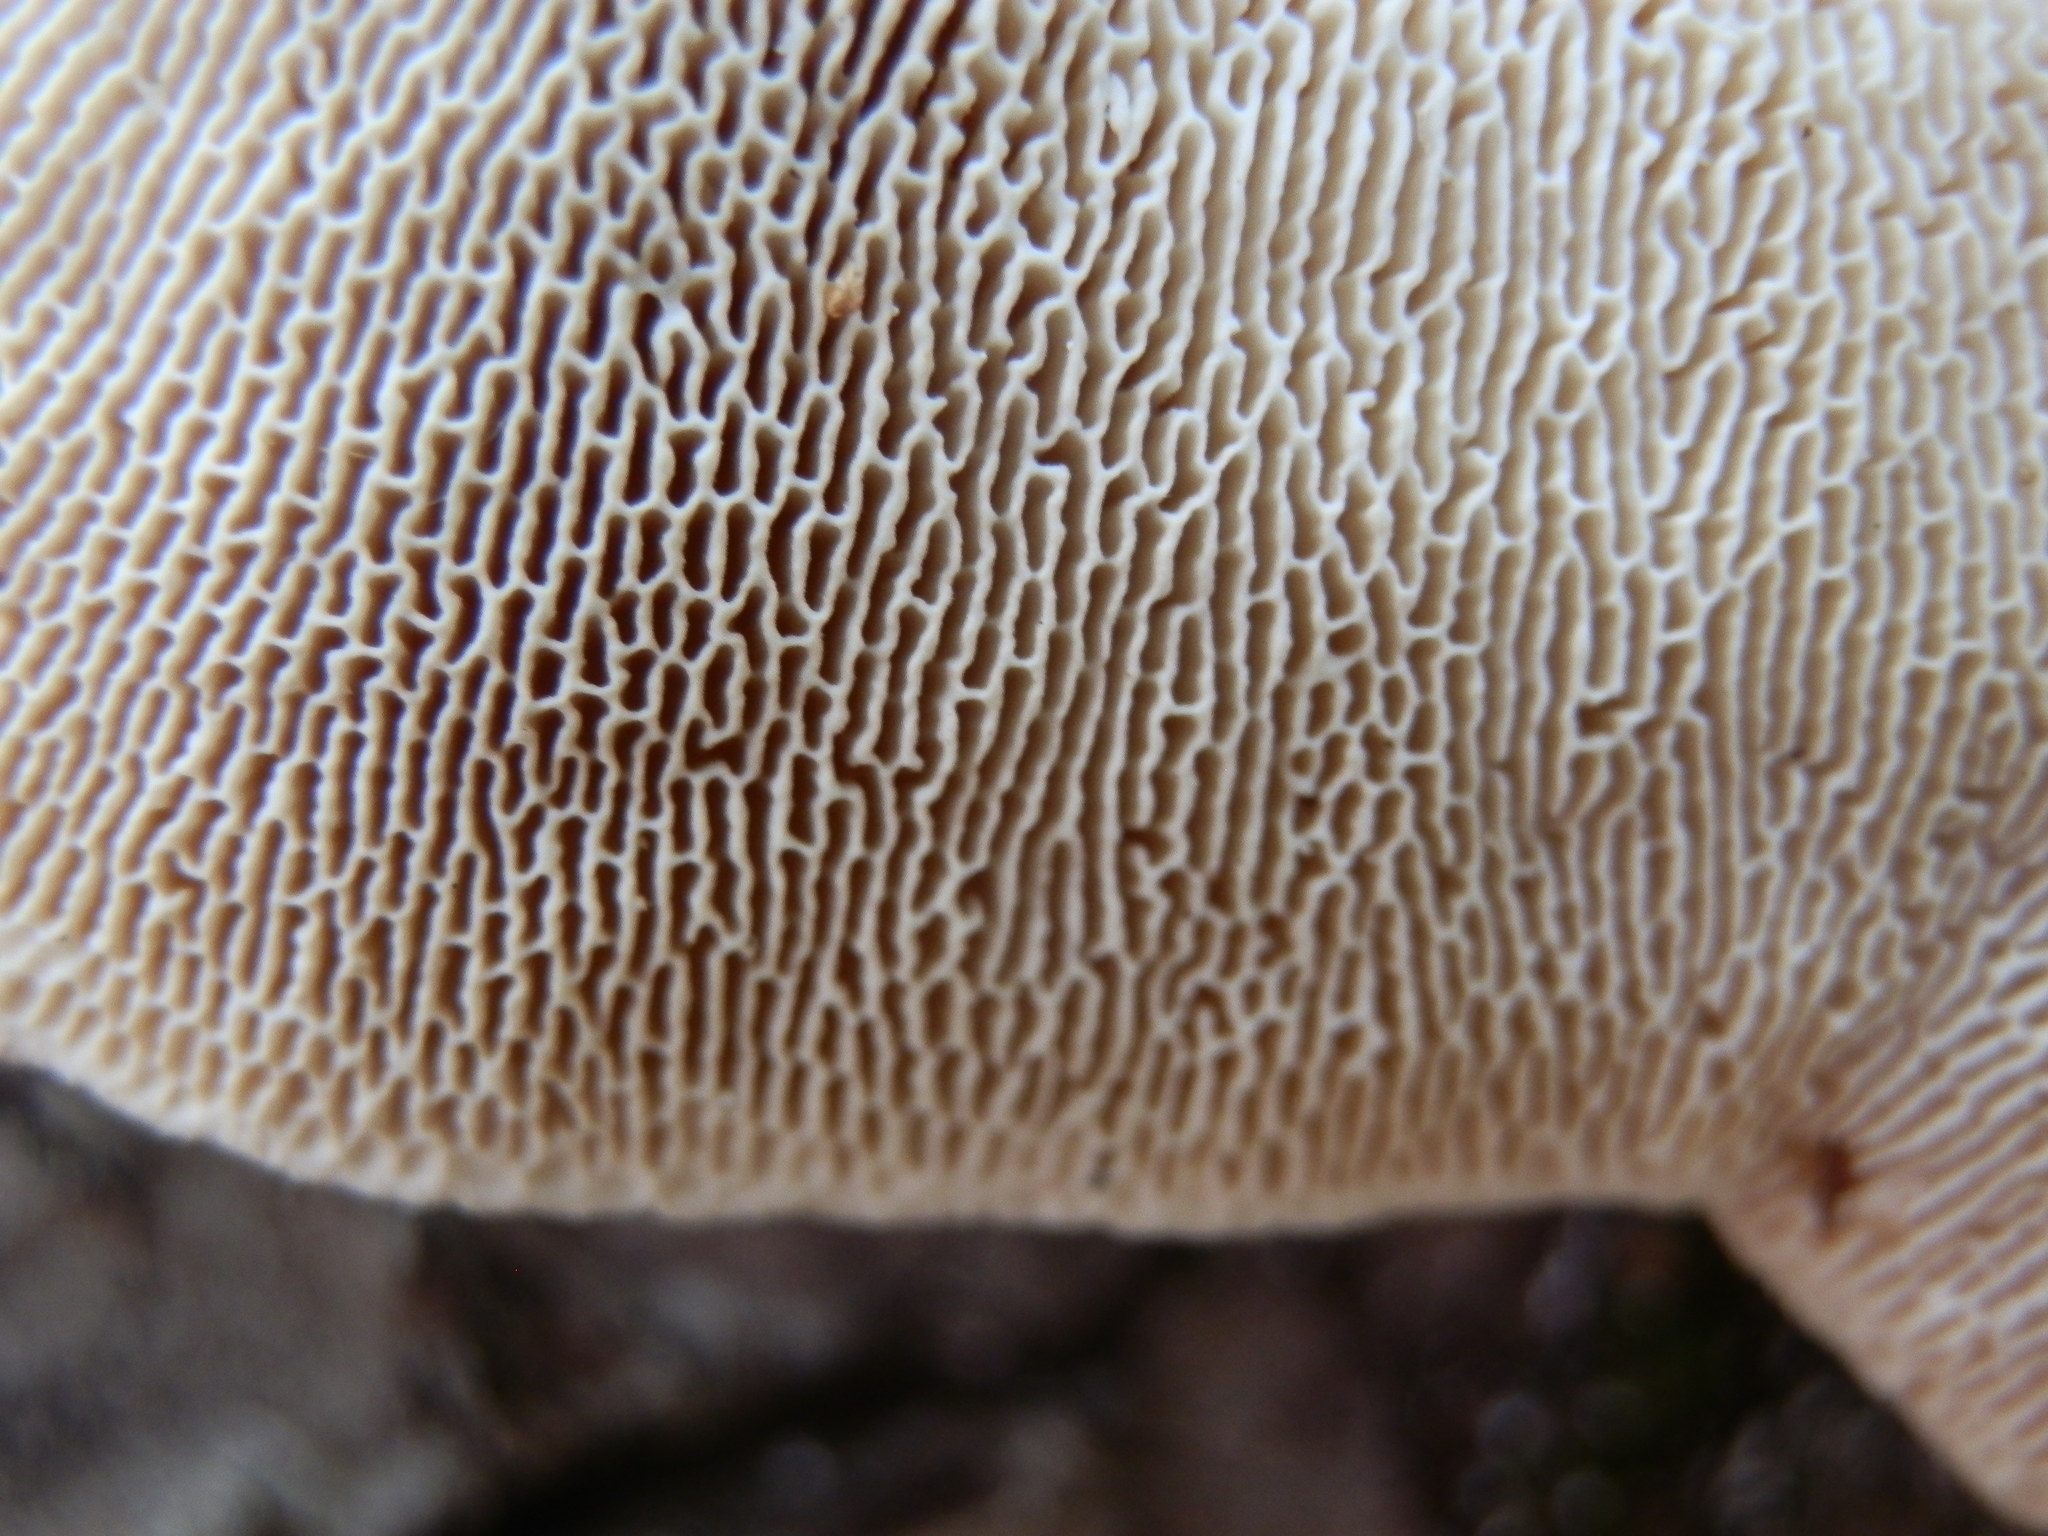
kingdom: Fungi
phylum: Basidiomycota
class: Agaricomycetes
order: Polyporales
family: Polyporaceae
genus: Trametes
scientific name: Trametes gibbosa
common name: Lumpy bracket
